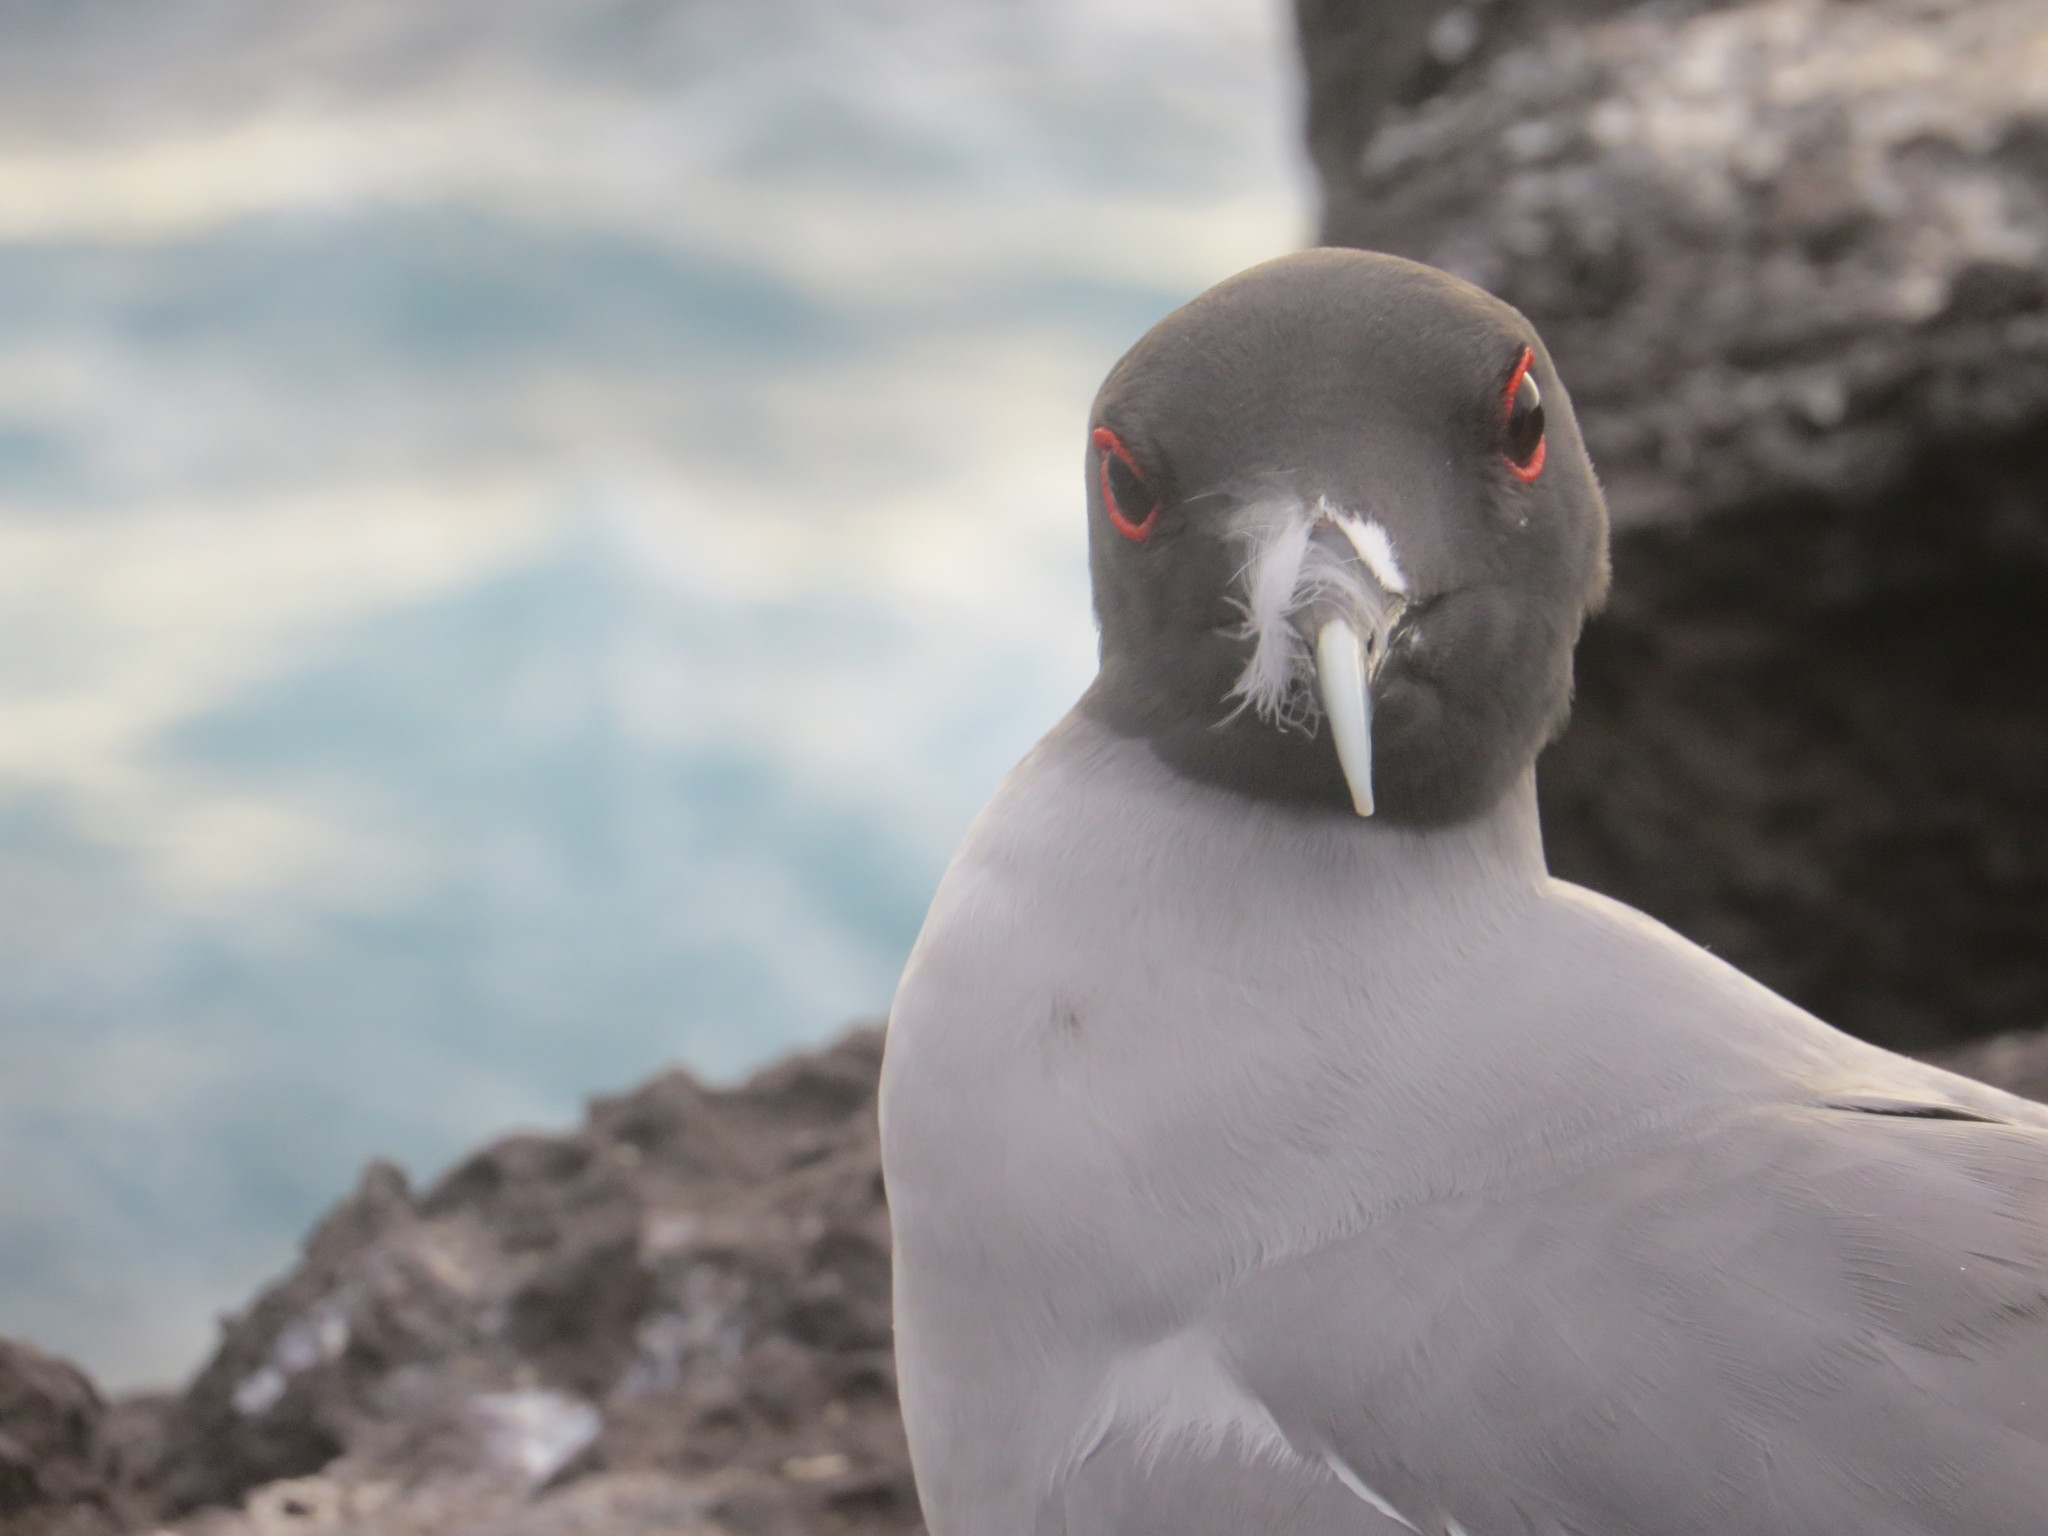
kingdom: Animalia
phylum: Chordata
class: Aves
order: Charadriiformes
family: Laridae
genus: Creagrus
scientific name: Creagrus furcatus
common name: Swallow-tailed gull
